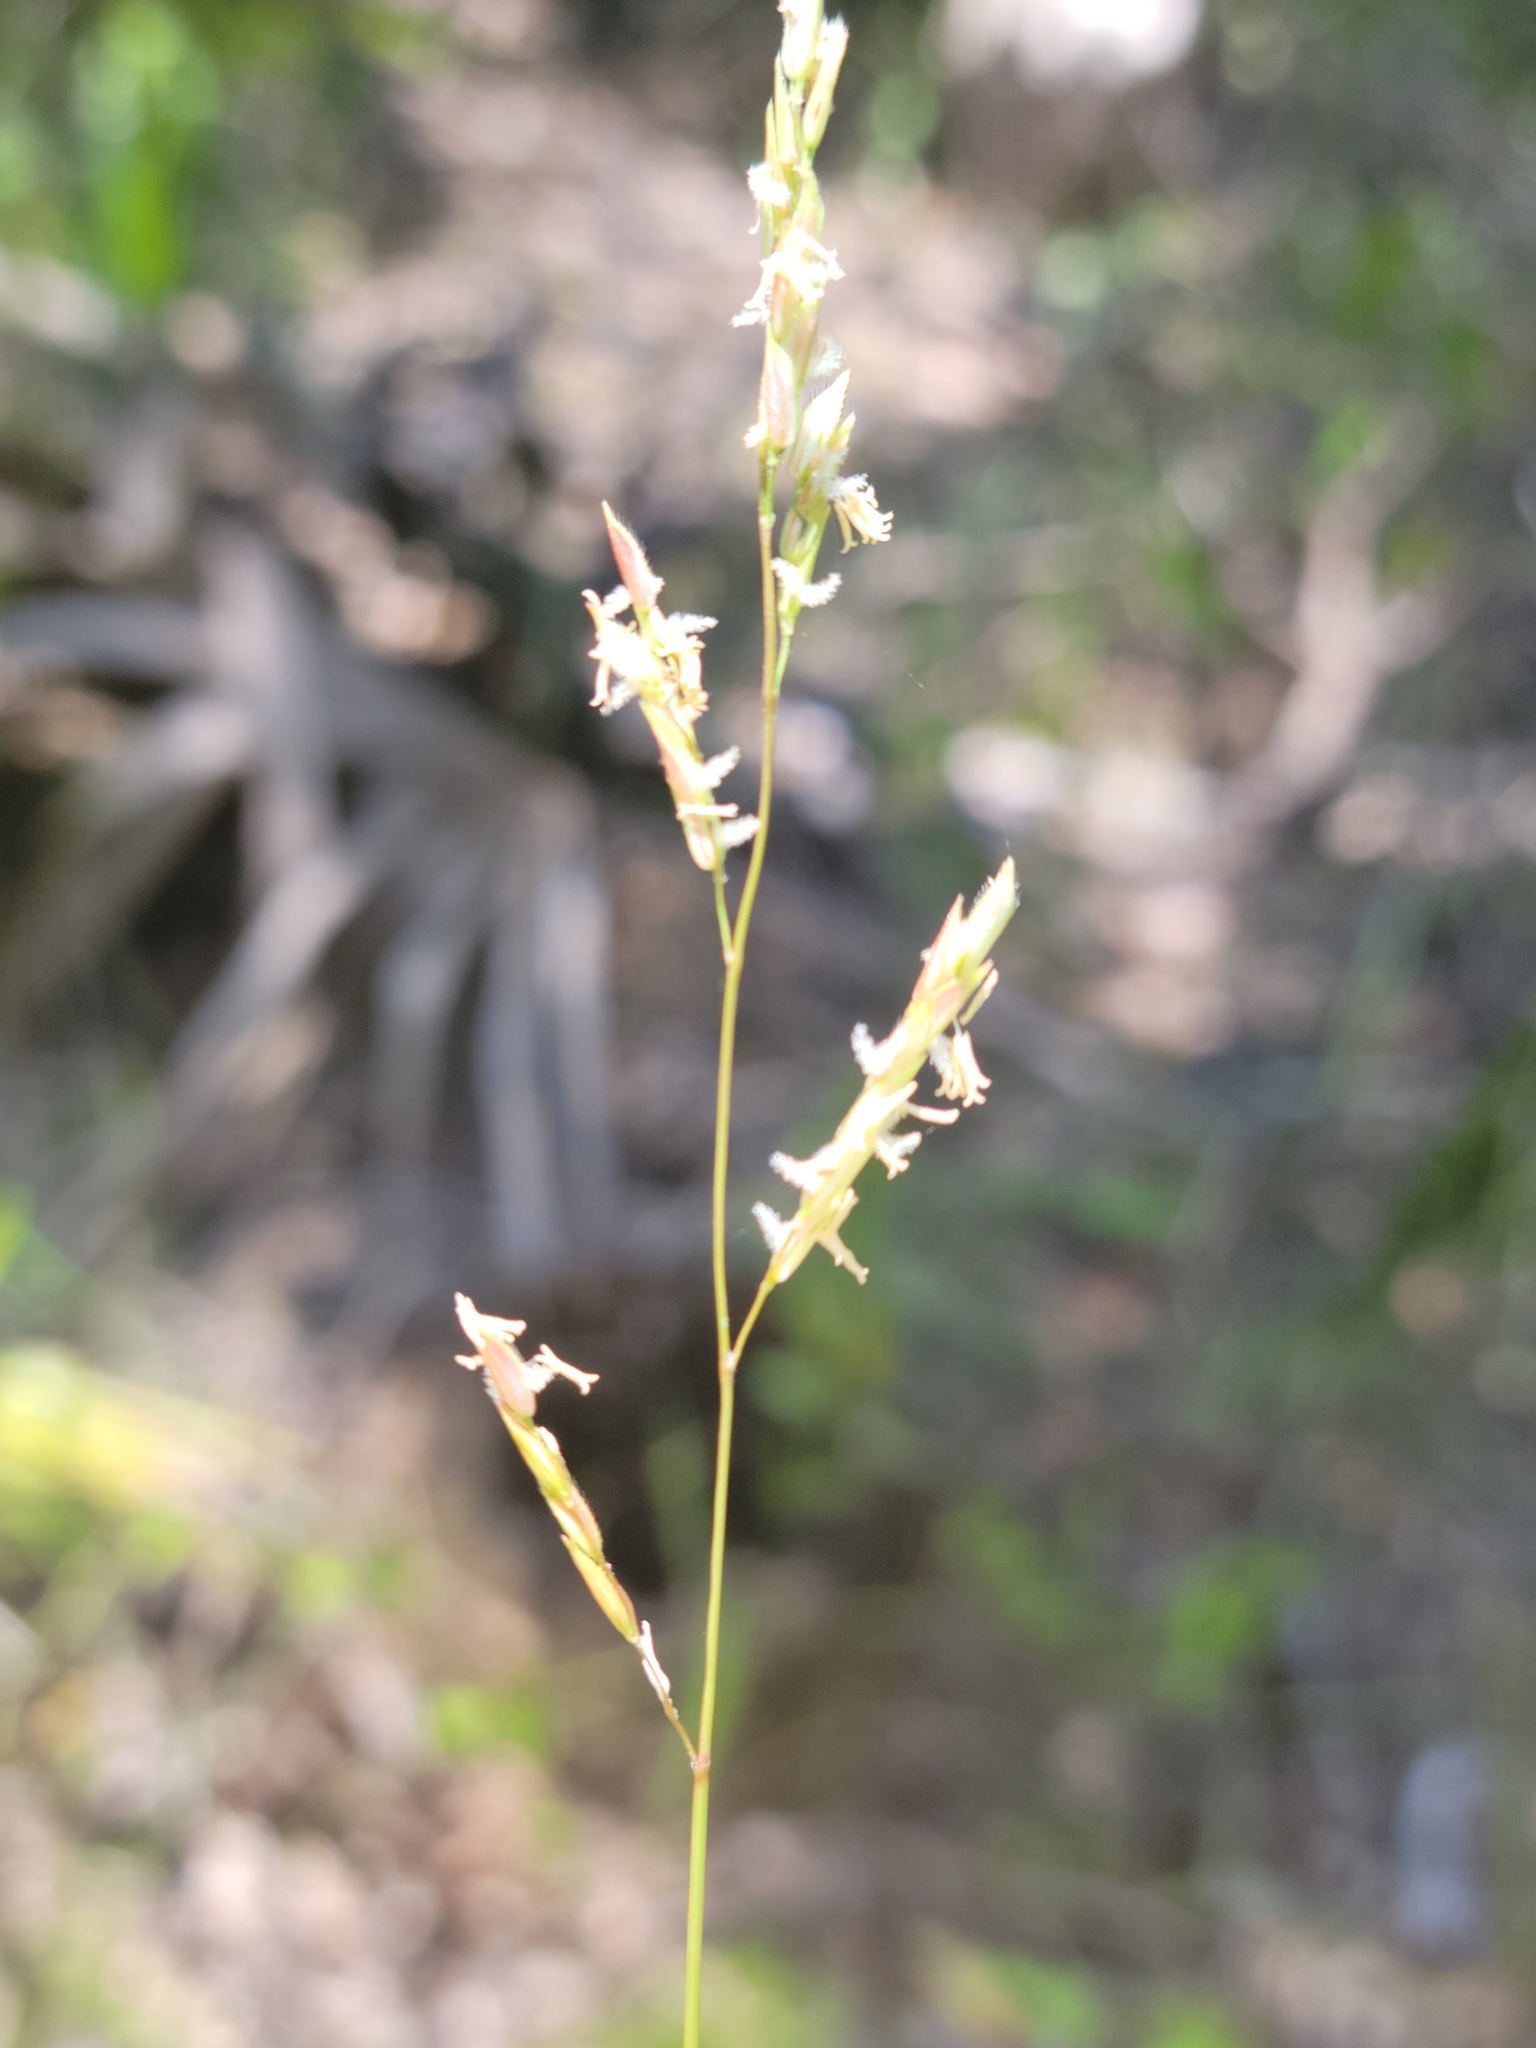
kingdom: Plantae
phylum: Tracheophyta
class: Liliopsida
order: Poales
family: Poaceae
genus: Leersia
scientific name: Leersia hexandra
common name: Southern cut grass
